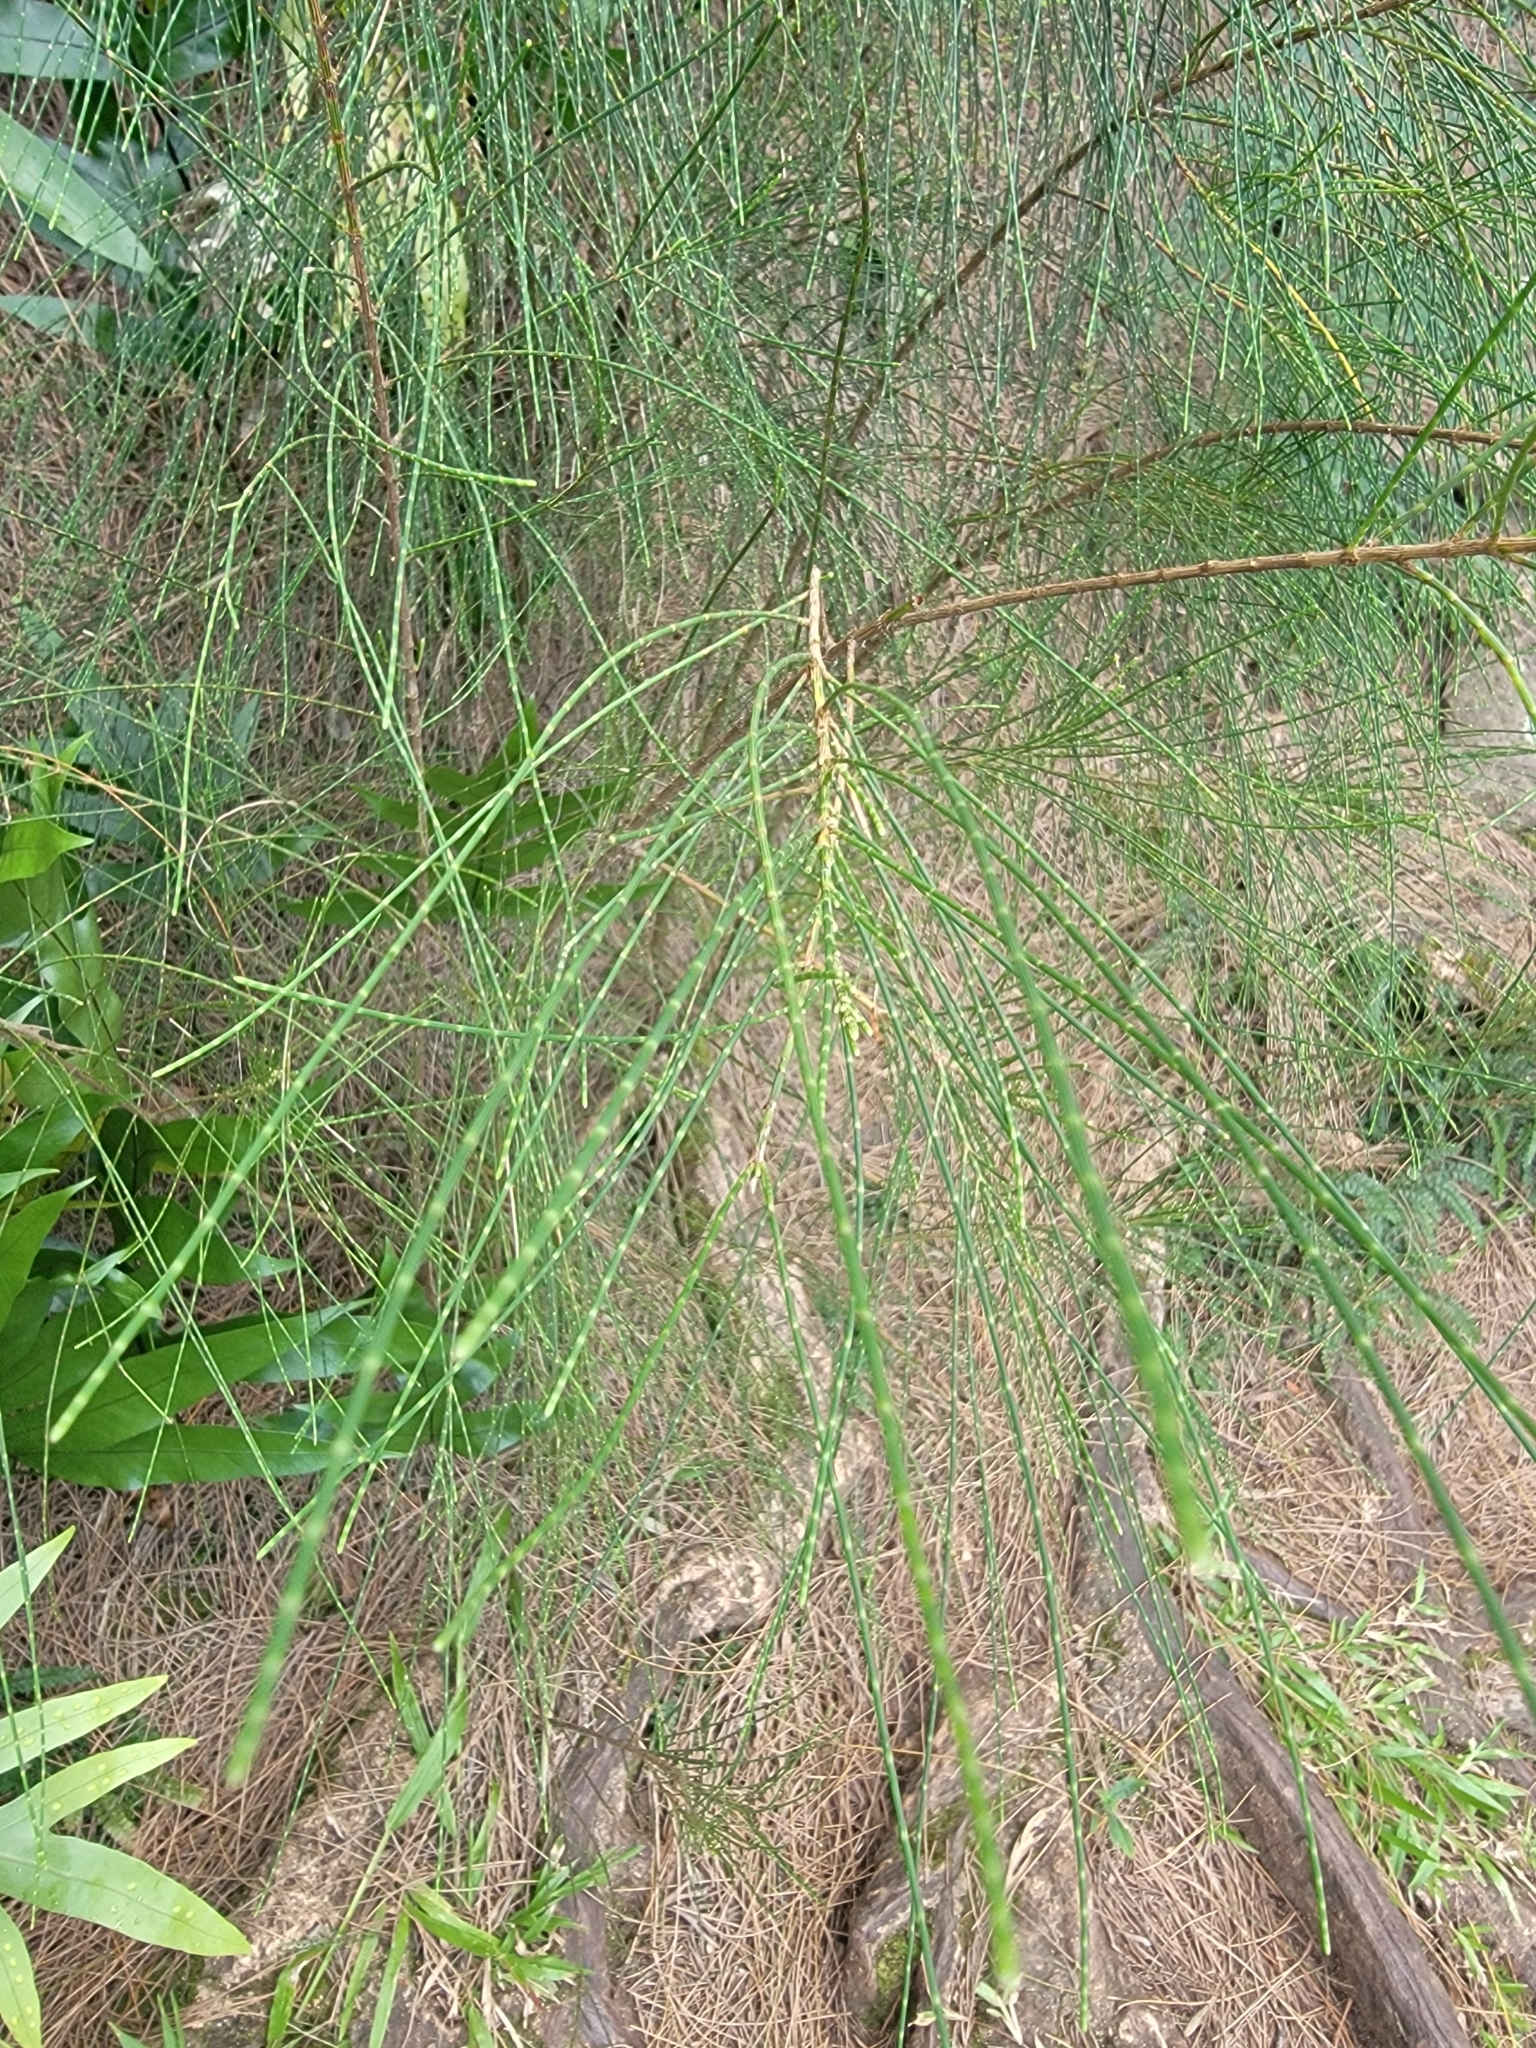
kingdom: Plantae
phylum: Tracheophyta
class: Magnoliopsida
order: Fagales
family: Casuarinaceae
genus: Casuarina
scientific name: Casuarina equisetifolia
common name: Beach sheoak
